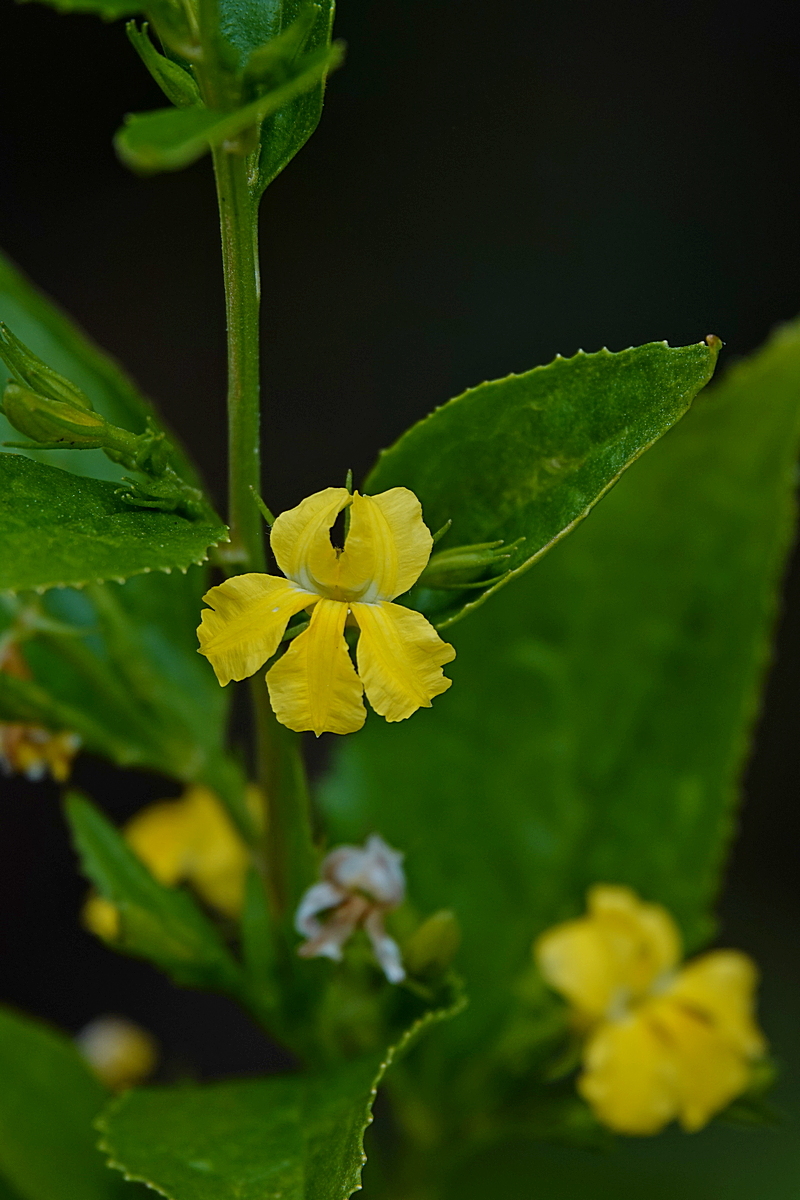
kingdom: Plantae
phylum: Tracheophyta
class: Magnoliopsida
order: Asterales
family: Goodeniaceae
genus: Goodenia
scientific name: Goodenia ovata
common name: Hop goodenia
